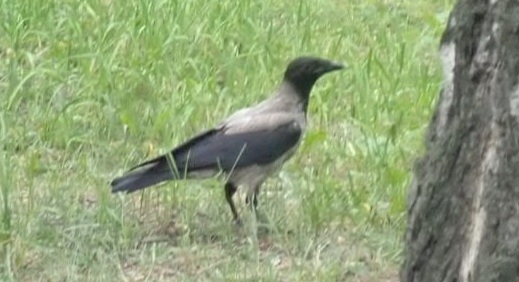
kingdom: Animalia
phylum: Chordata
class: Aves
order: Passeriformes
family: Corvidae
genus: Corvus
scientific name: Corvus cornix
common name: Hooded crow
